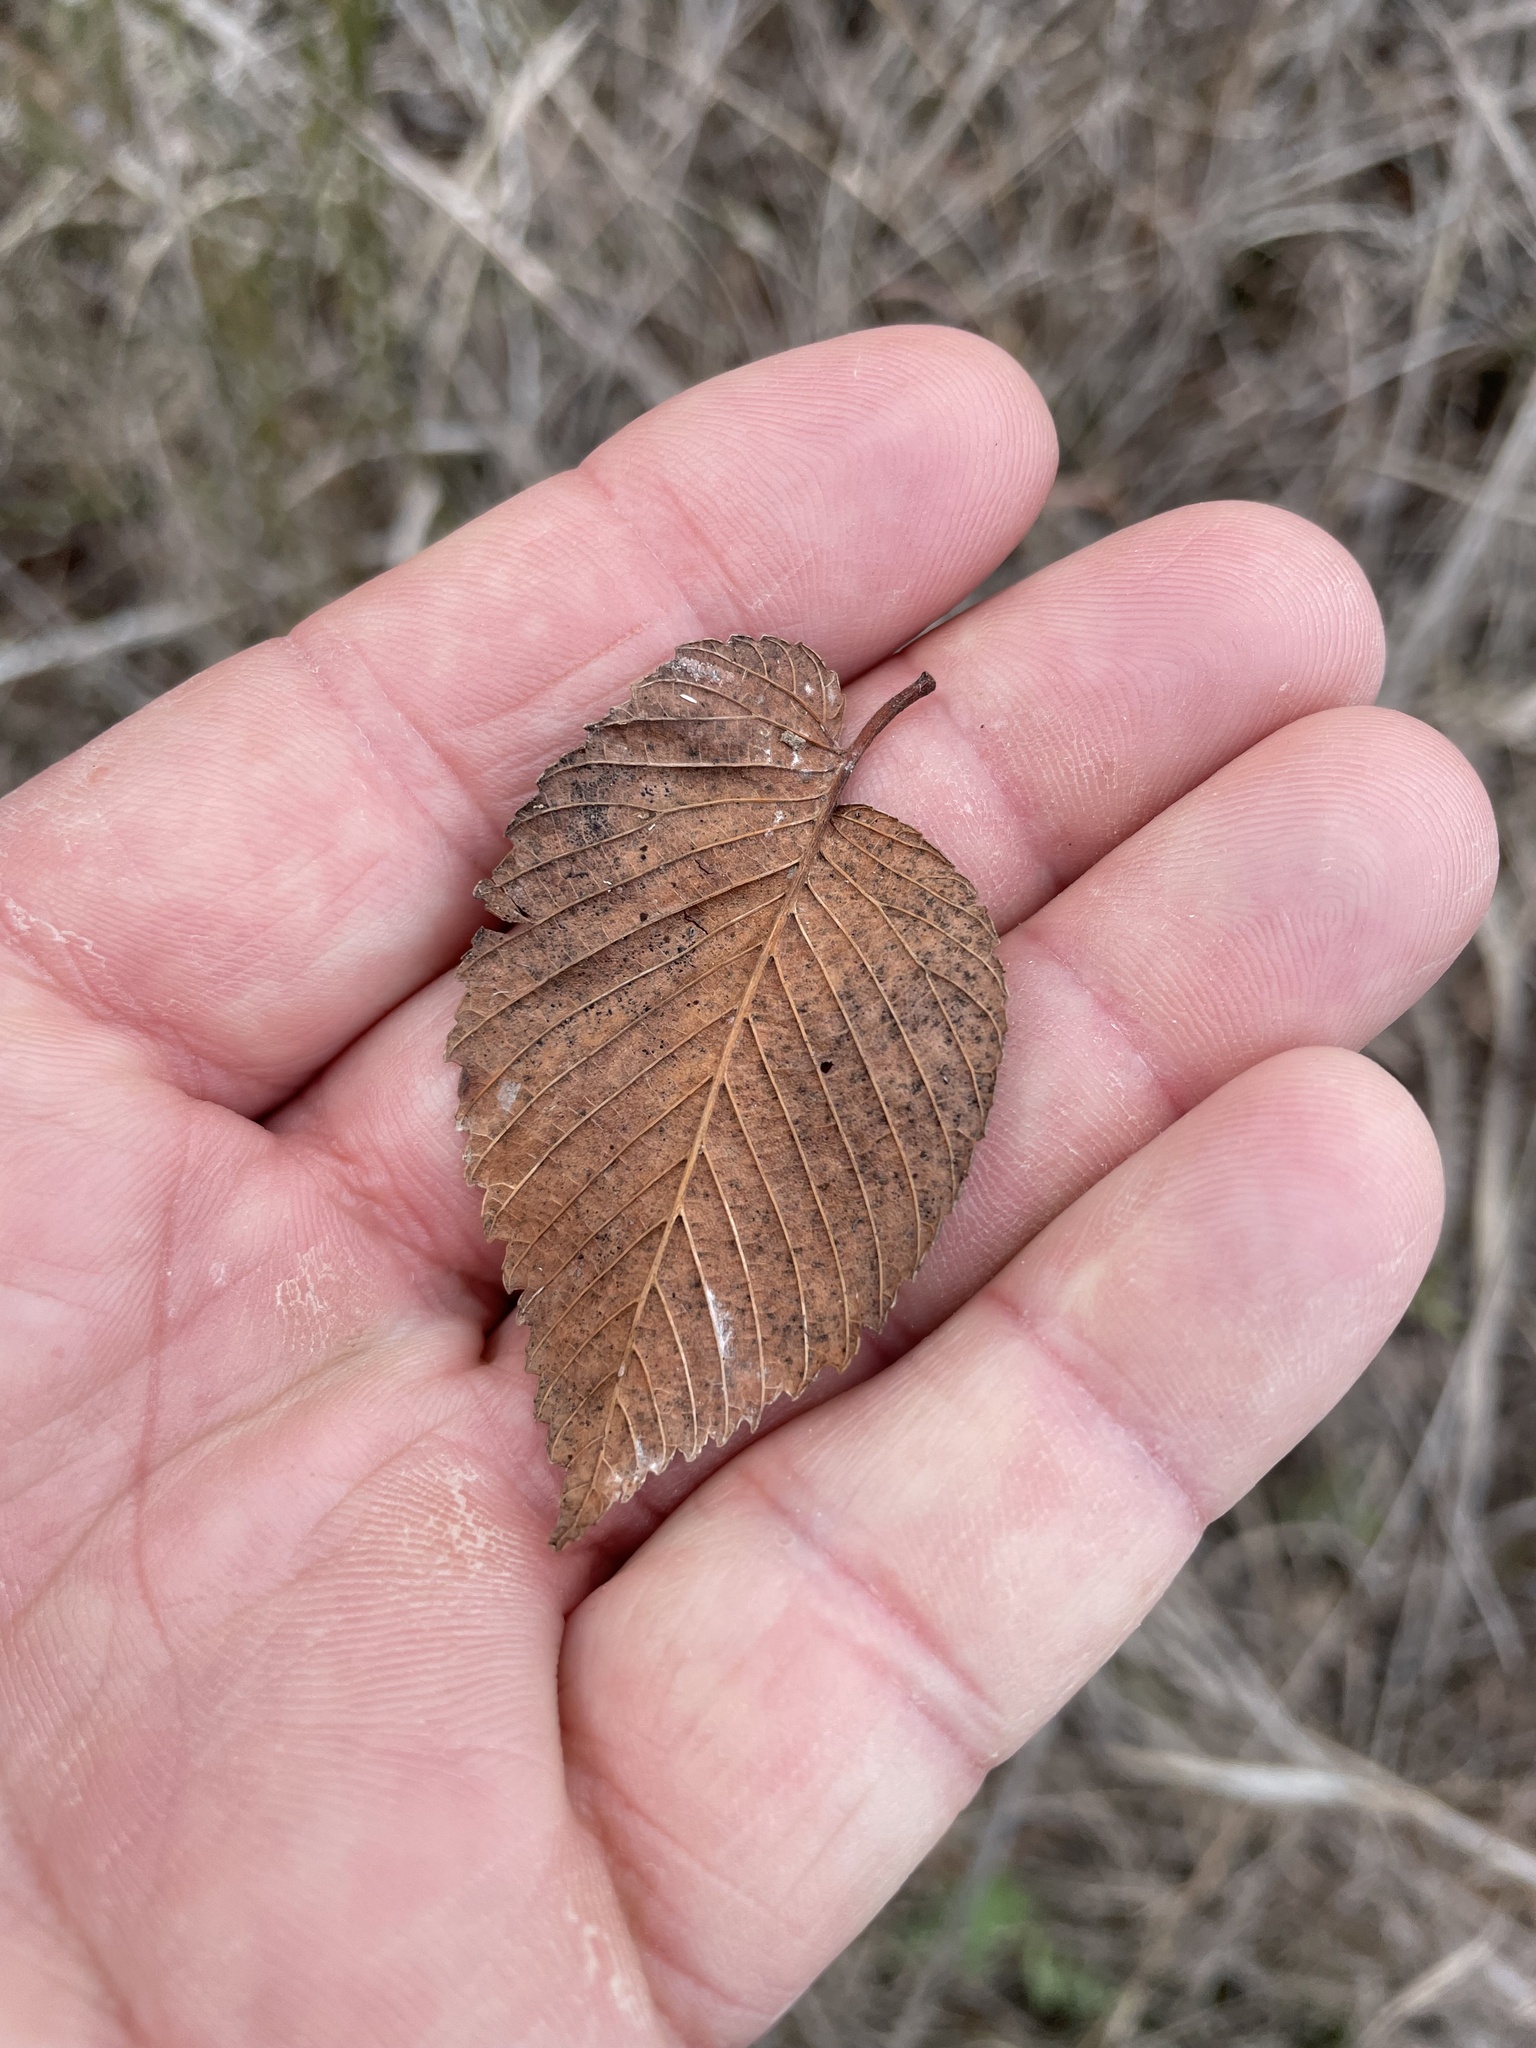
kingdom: Plantae
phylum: Tracheophyta
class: Magnoliopsida
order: Rosales
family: Ulmaceae
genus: Ulmus
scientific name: Ulmus americana
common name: American elm
